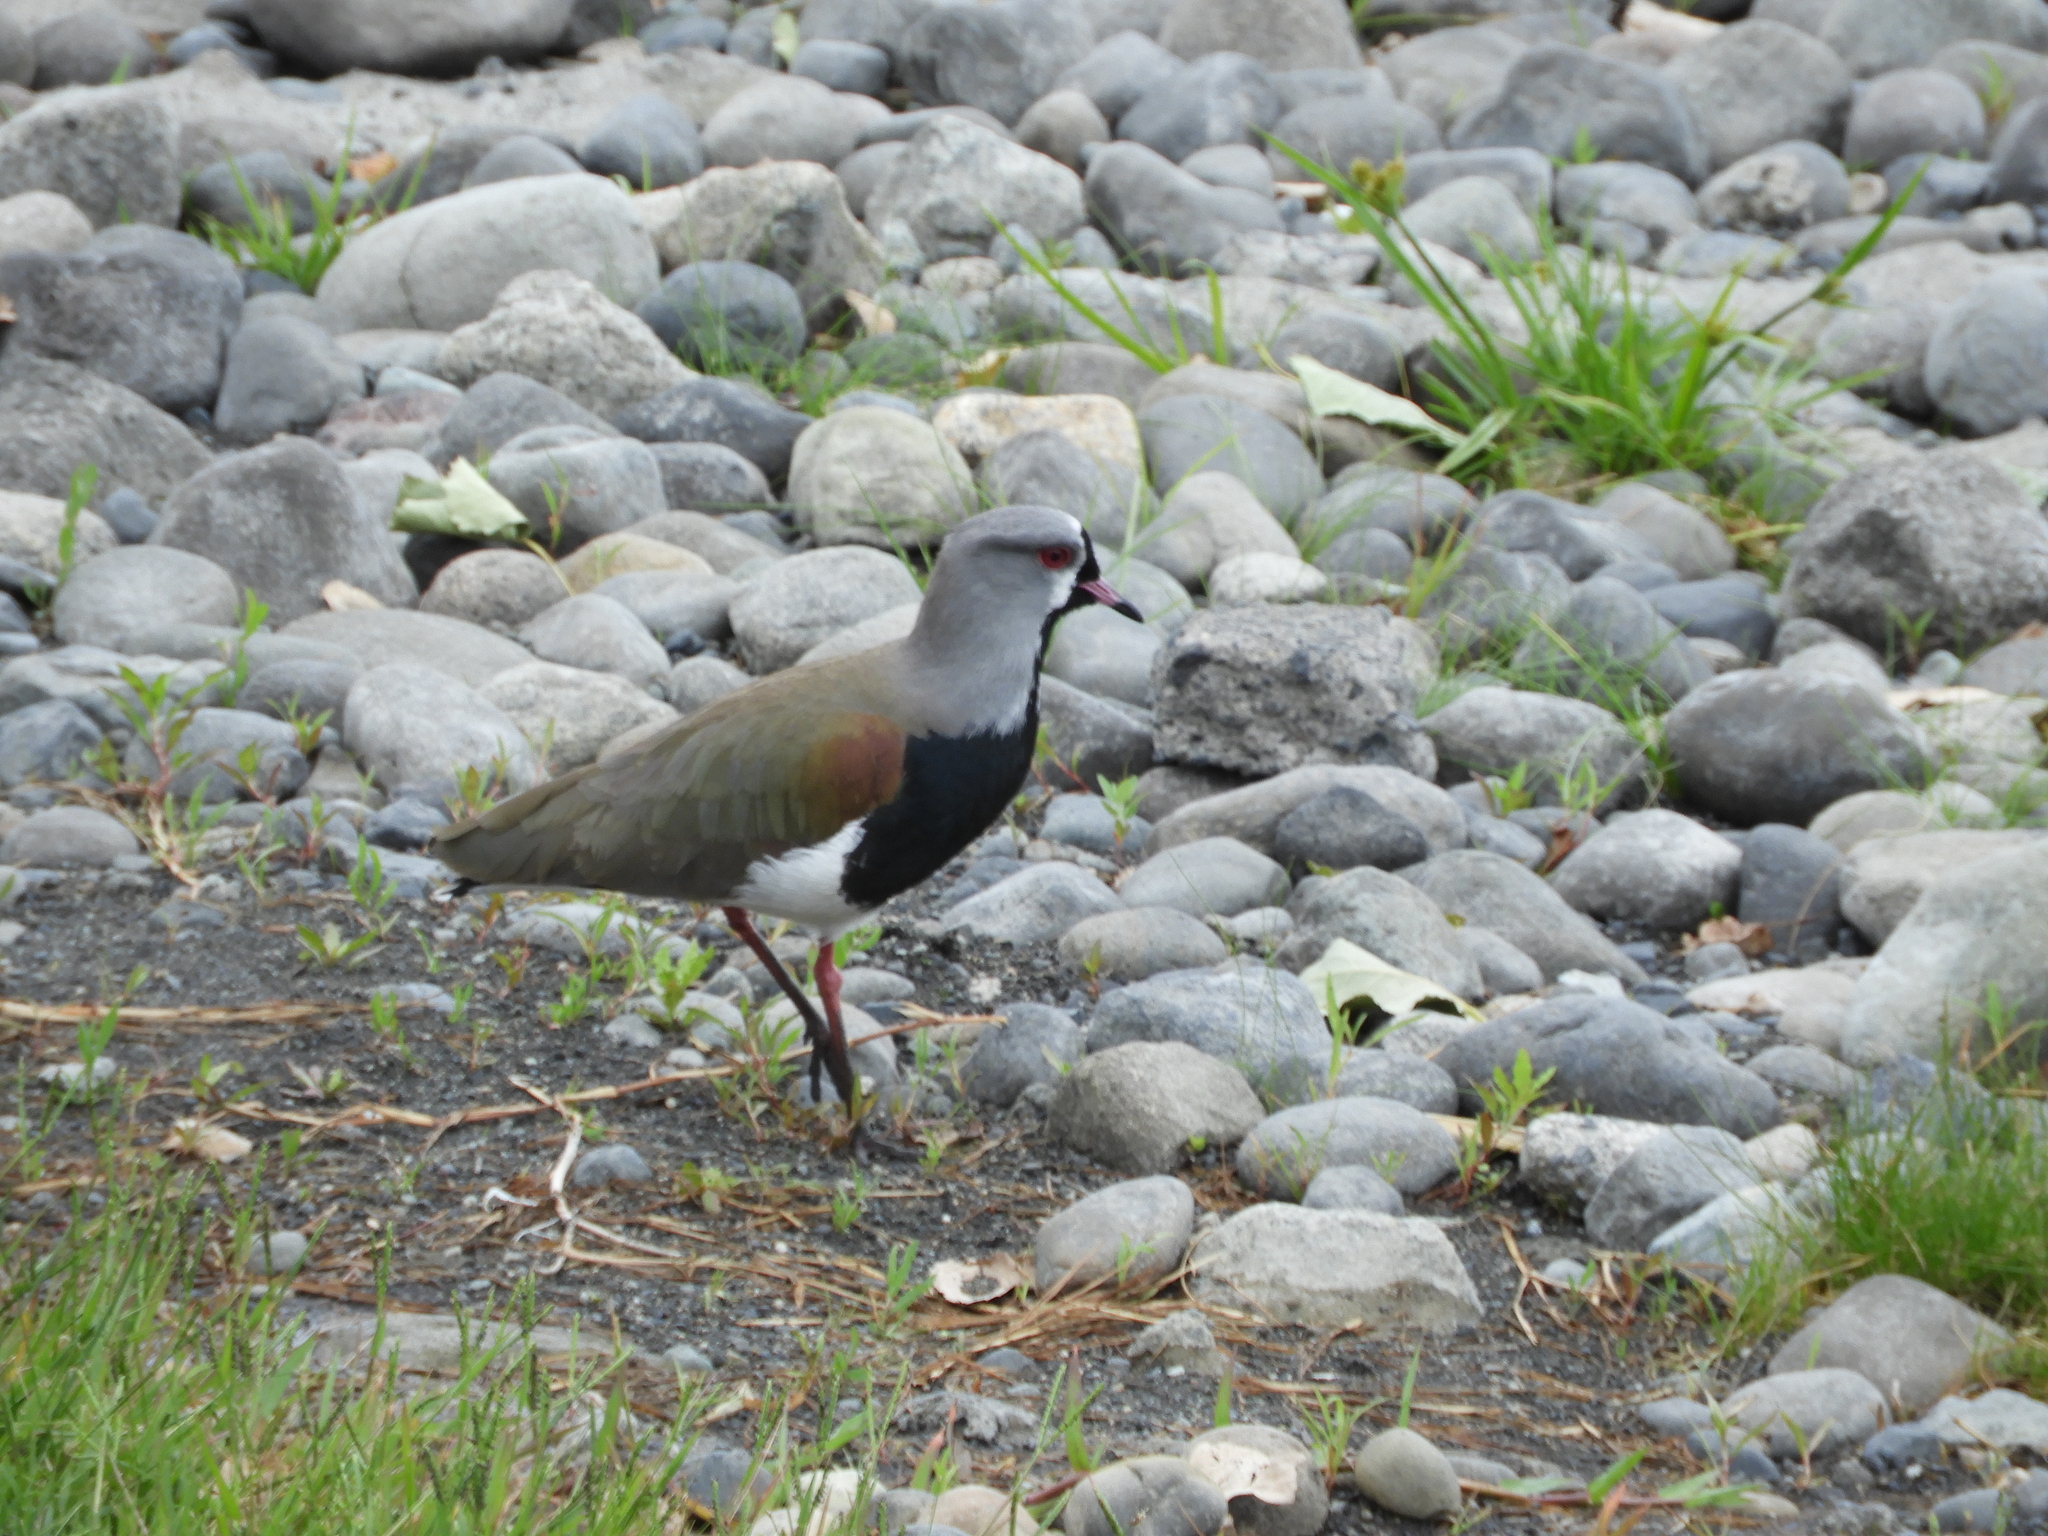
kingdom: Animalia
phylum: Chordata
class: Aves
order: Charadriiformes
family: Charadriidae
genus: Vanellus
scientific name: Vanellus chilensis
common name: Southern lapwing
